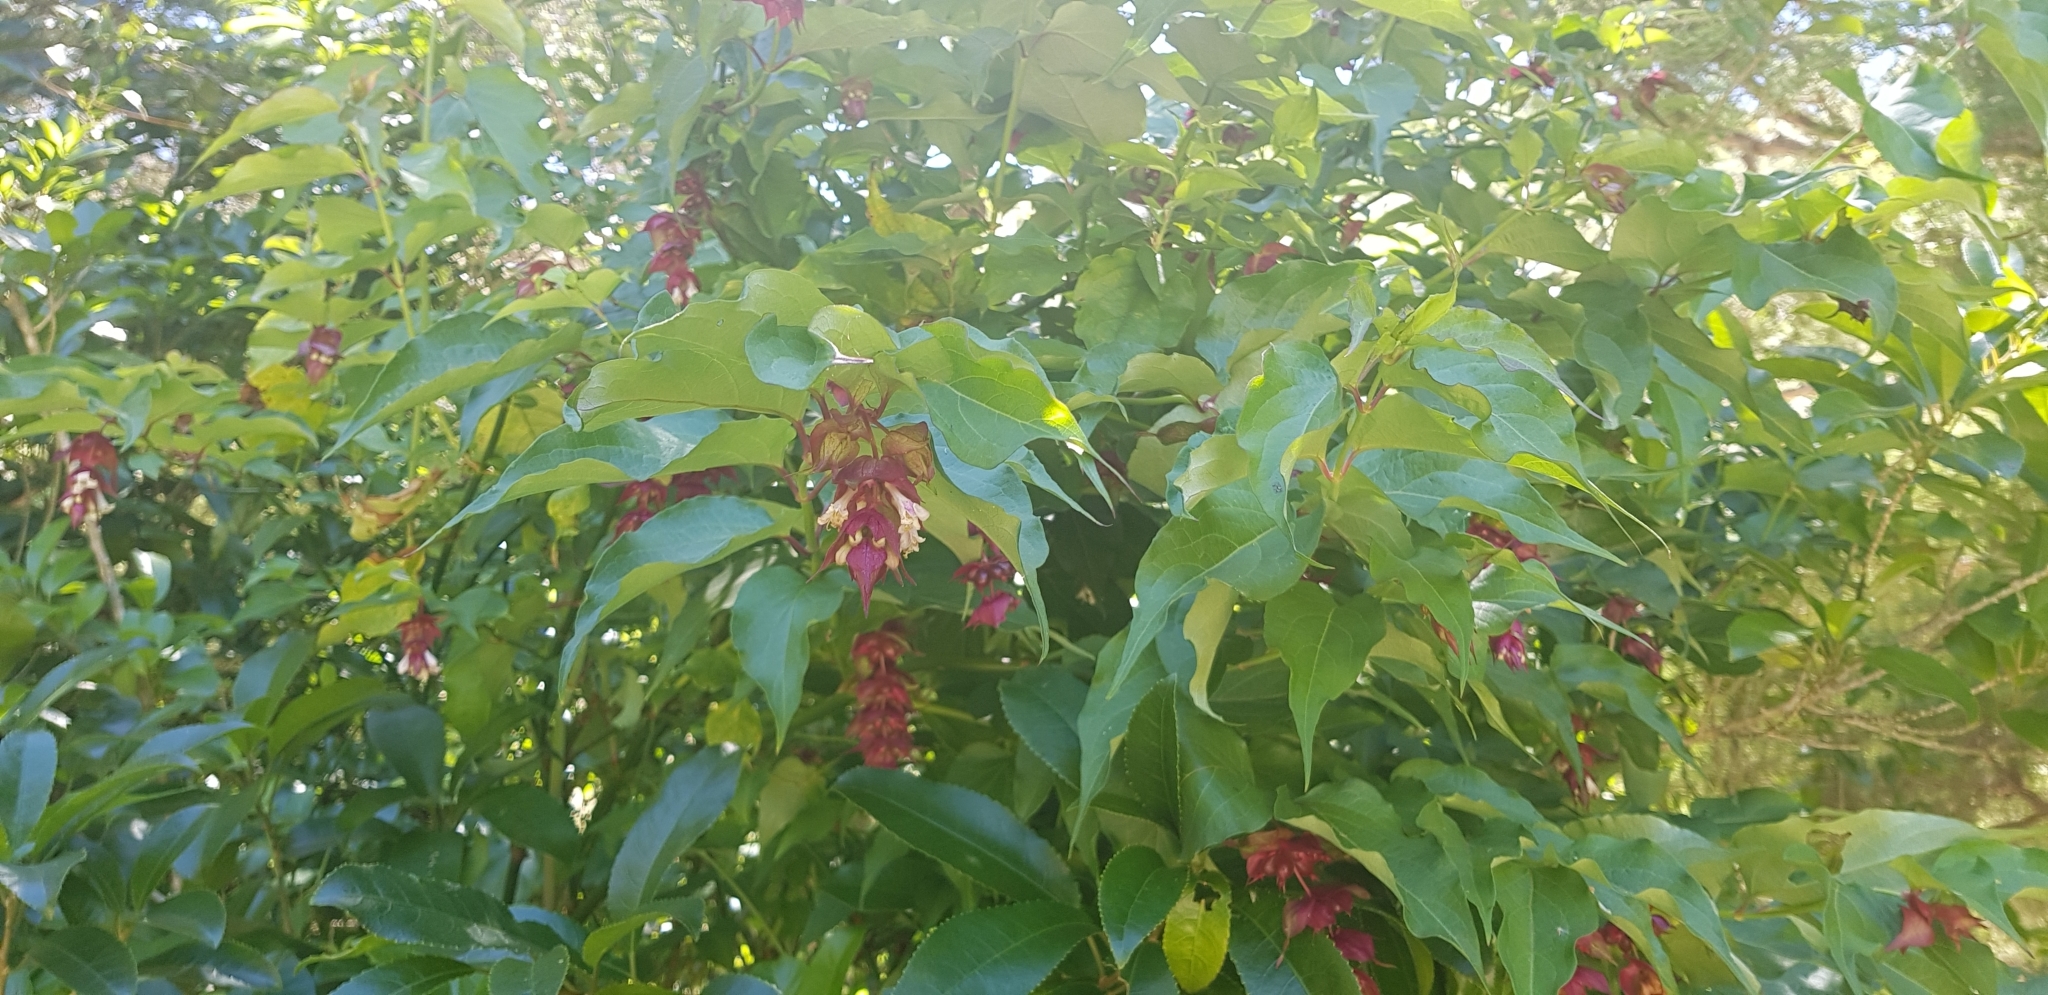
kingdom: Plantae
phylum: Tracheophyta
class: Magnoliopsida
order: Dipsacales
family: Caprifoliaceae
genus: Leycesteria
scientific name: Leycesteria formosa
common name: Himalayan honeysuckle
